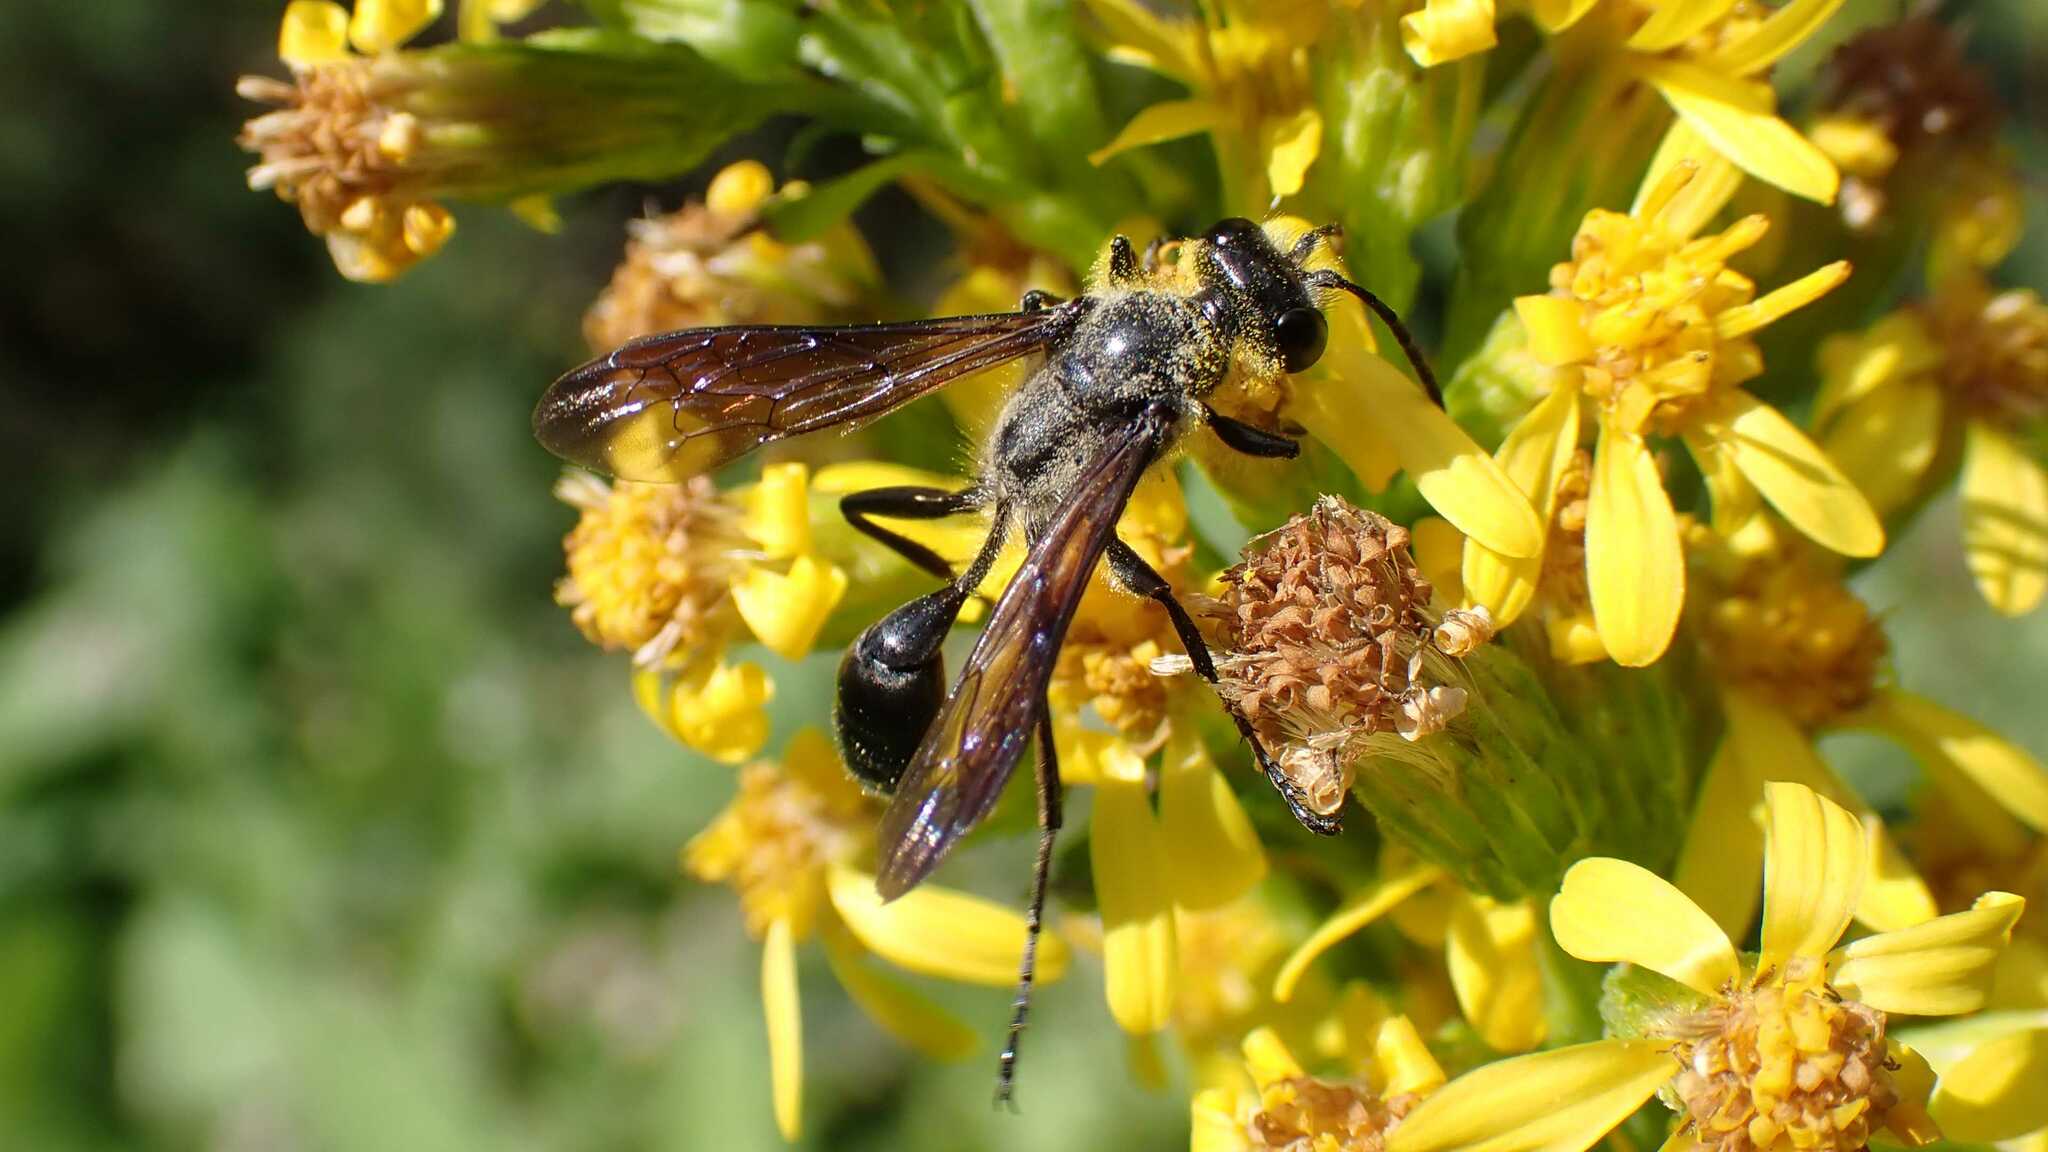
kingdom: Animalia
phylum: Arthropoda
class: Insecta
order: Hymenoptera
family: Sphecidae
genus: Isodontia
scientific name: Isodontia mexicana
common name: Mud dauber
